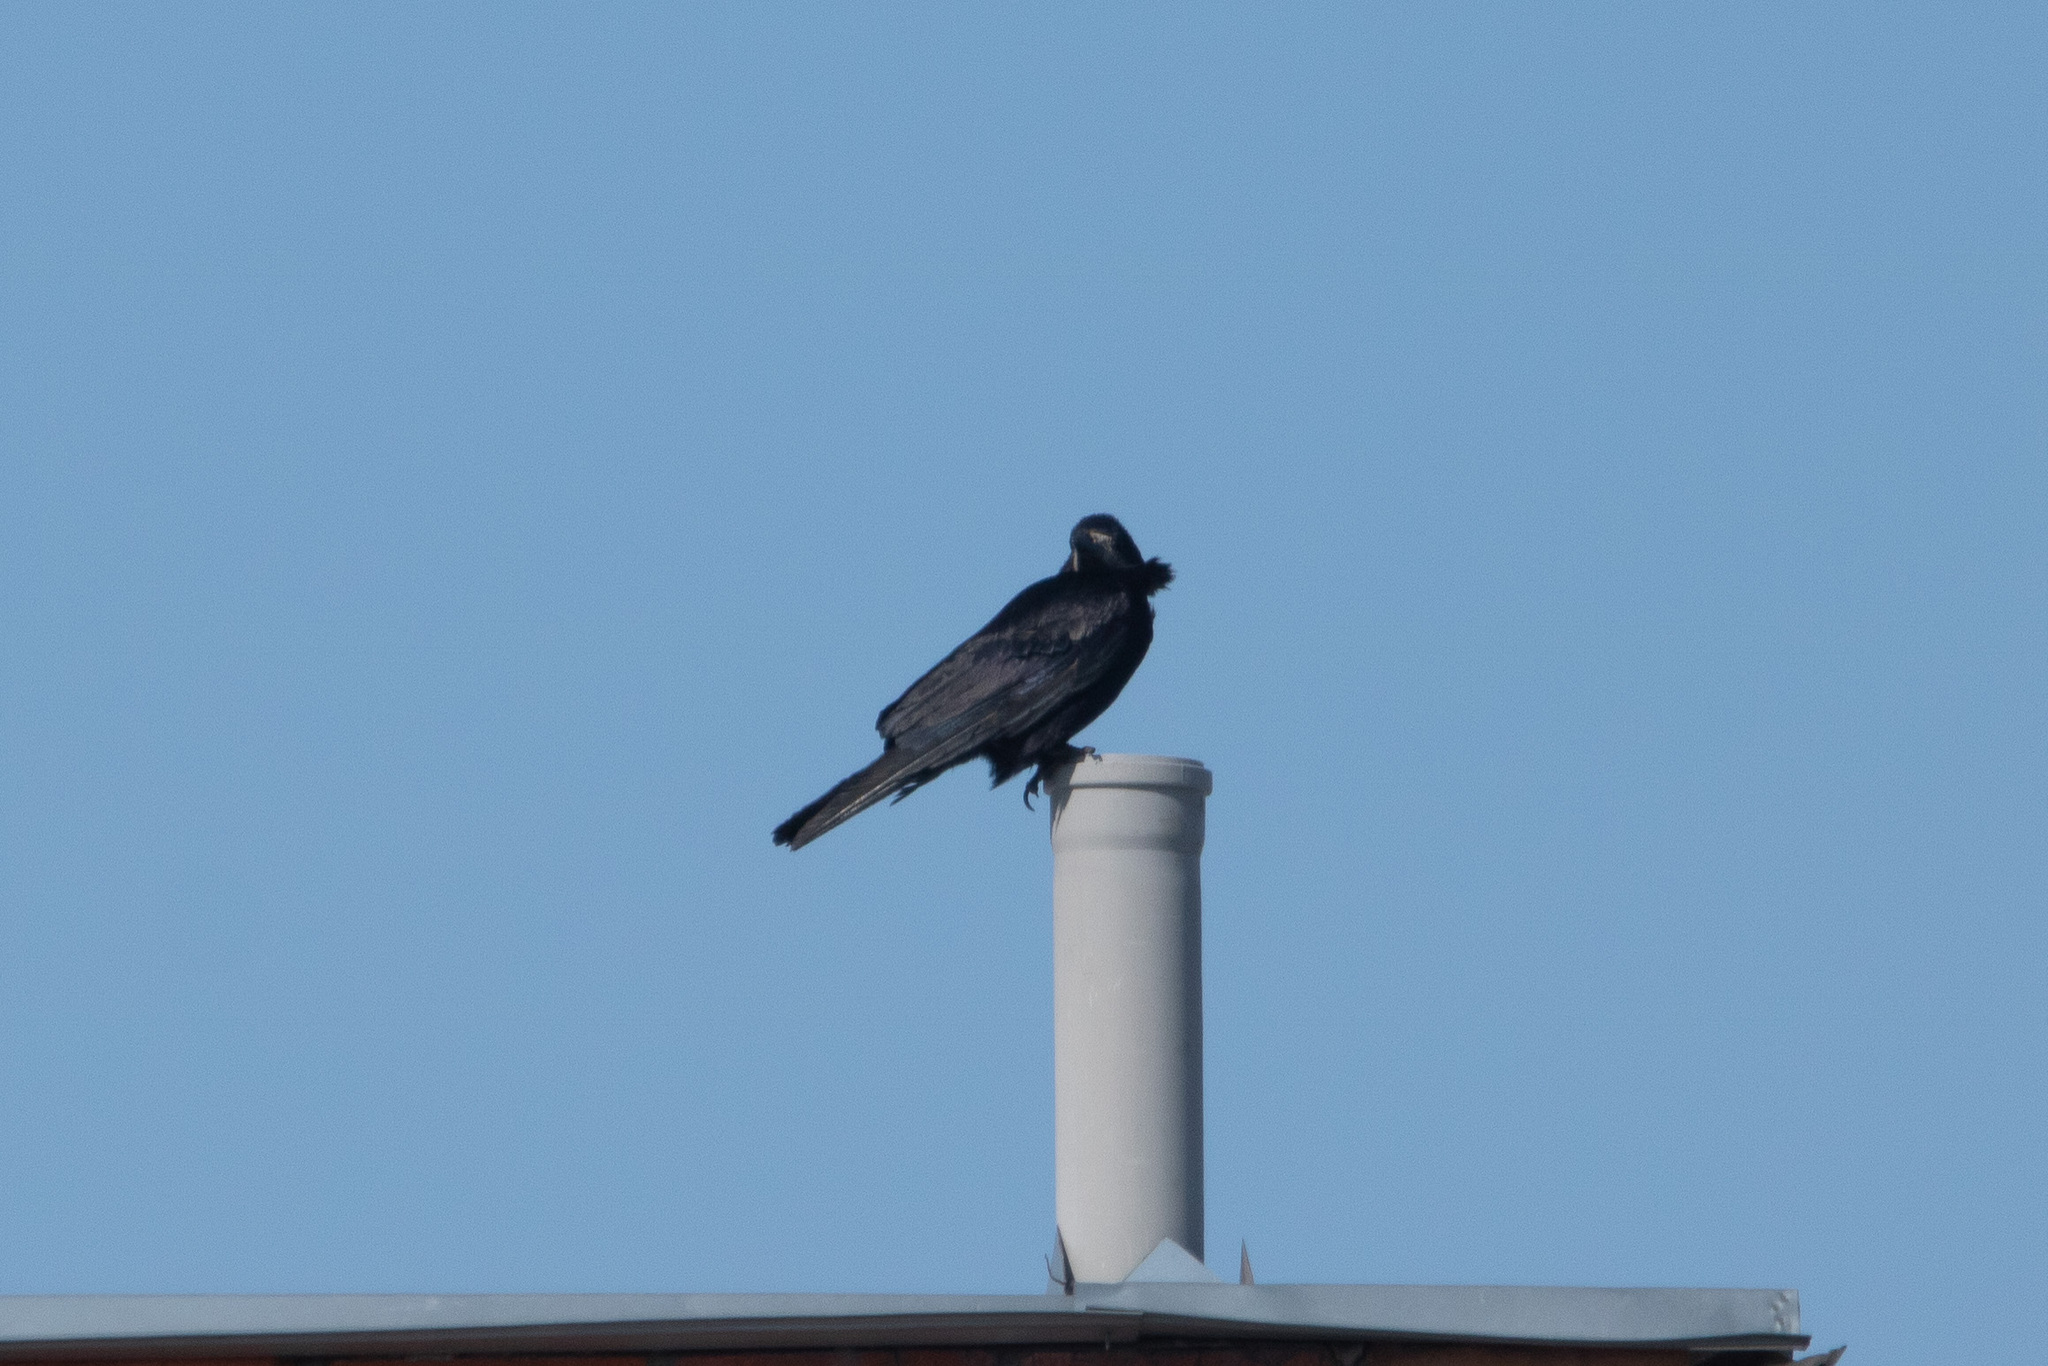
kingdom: Animalia
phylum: Chordata
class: Aves
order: Passeriformes
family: Corvidae
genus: Corvus
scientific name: Corvus frugilegus
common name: Rook
